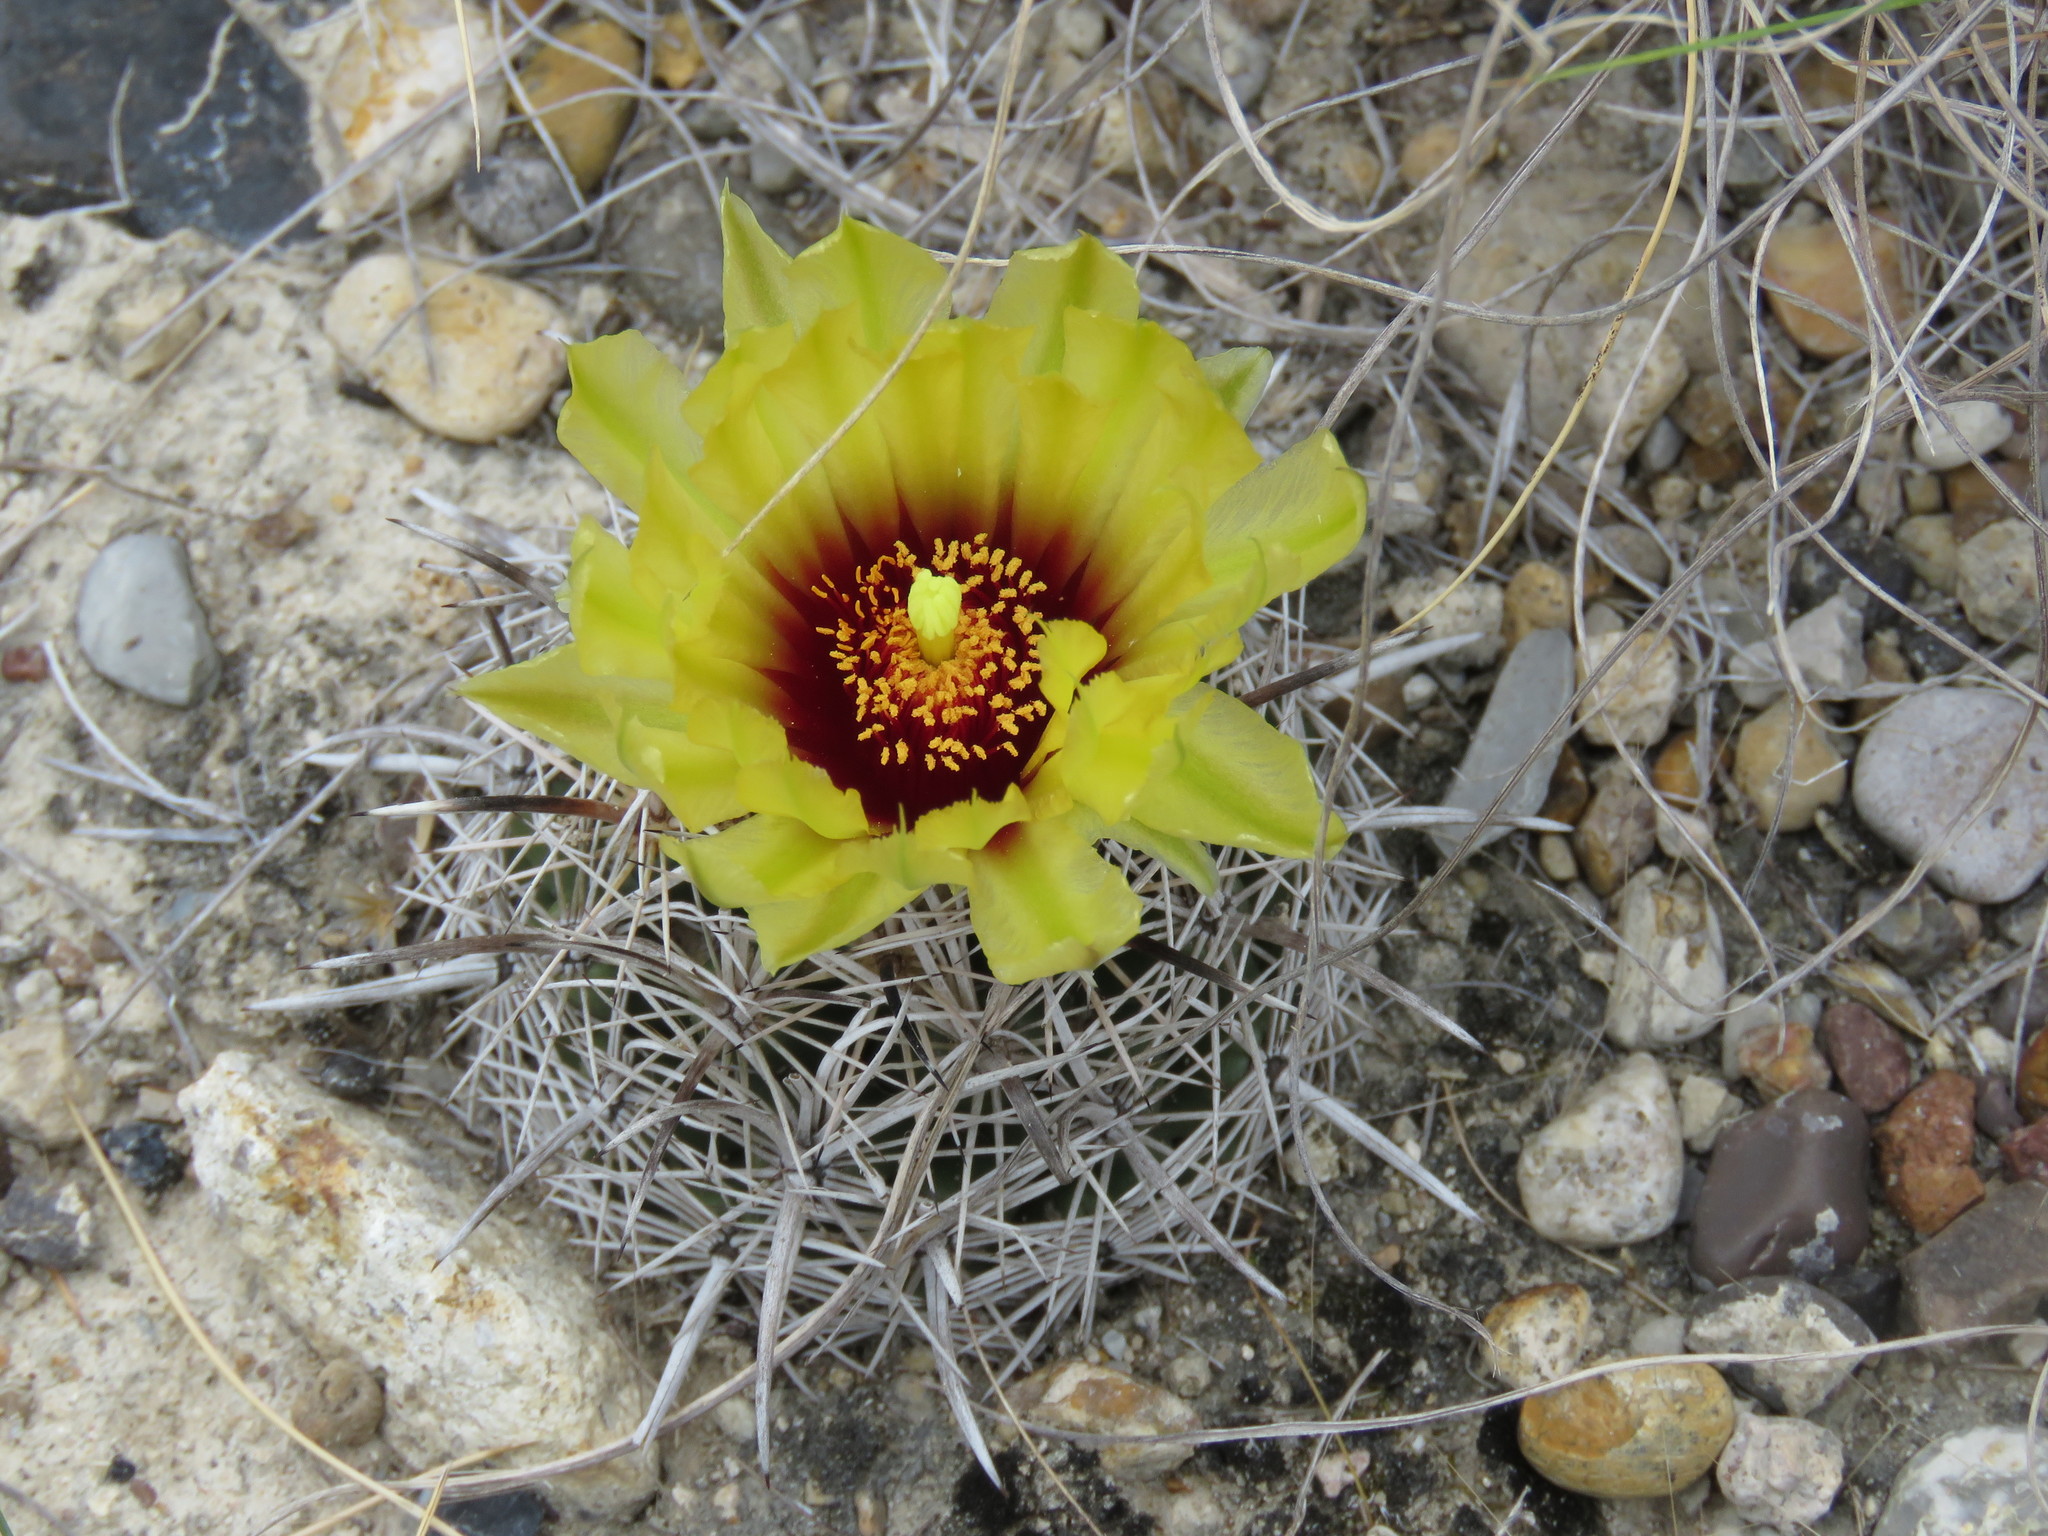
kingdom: Plantae
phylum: Tracheophyta
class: Magnoliopsida
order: Caryophyllales
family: Cactaceae
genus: Coryphantha
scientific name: Coryphantha salinensis
